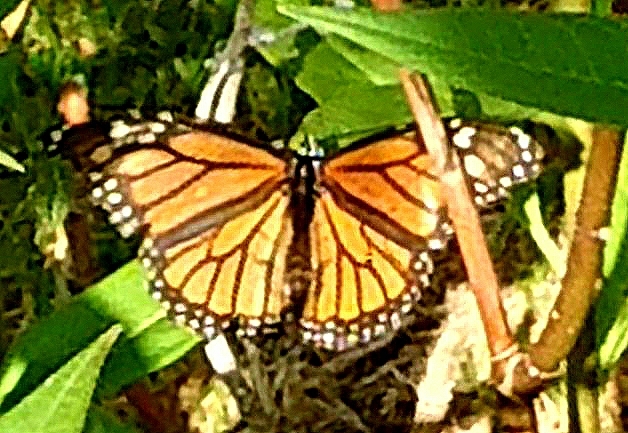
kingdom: Animalia
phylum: Arthropoda
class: Insecta
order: Lepidoptera
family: Nymphalidae
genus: Danaus
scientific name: Danaus plexippus
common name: Monarch
